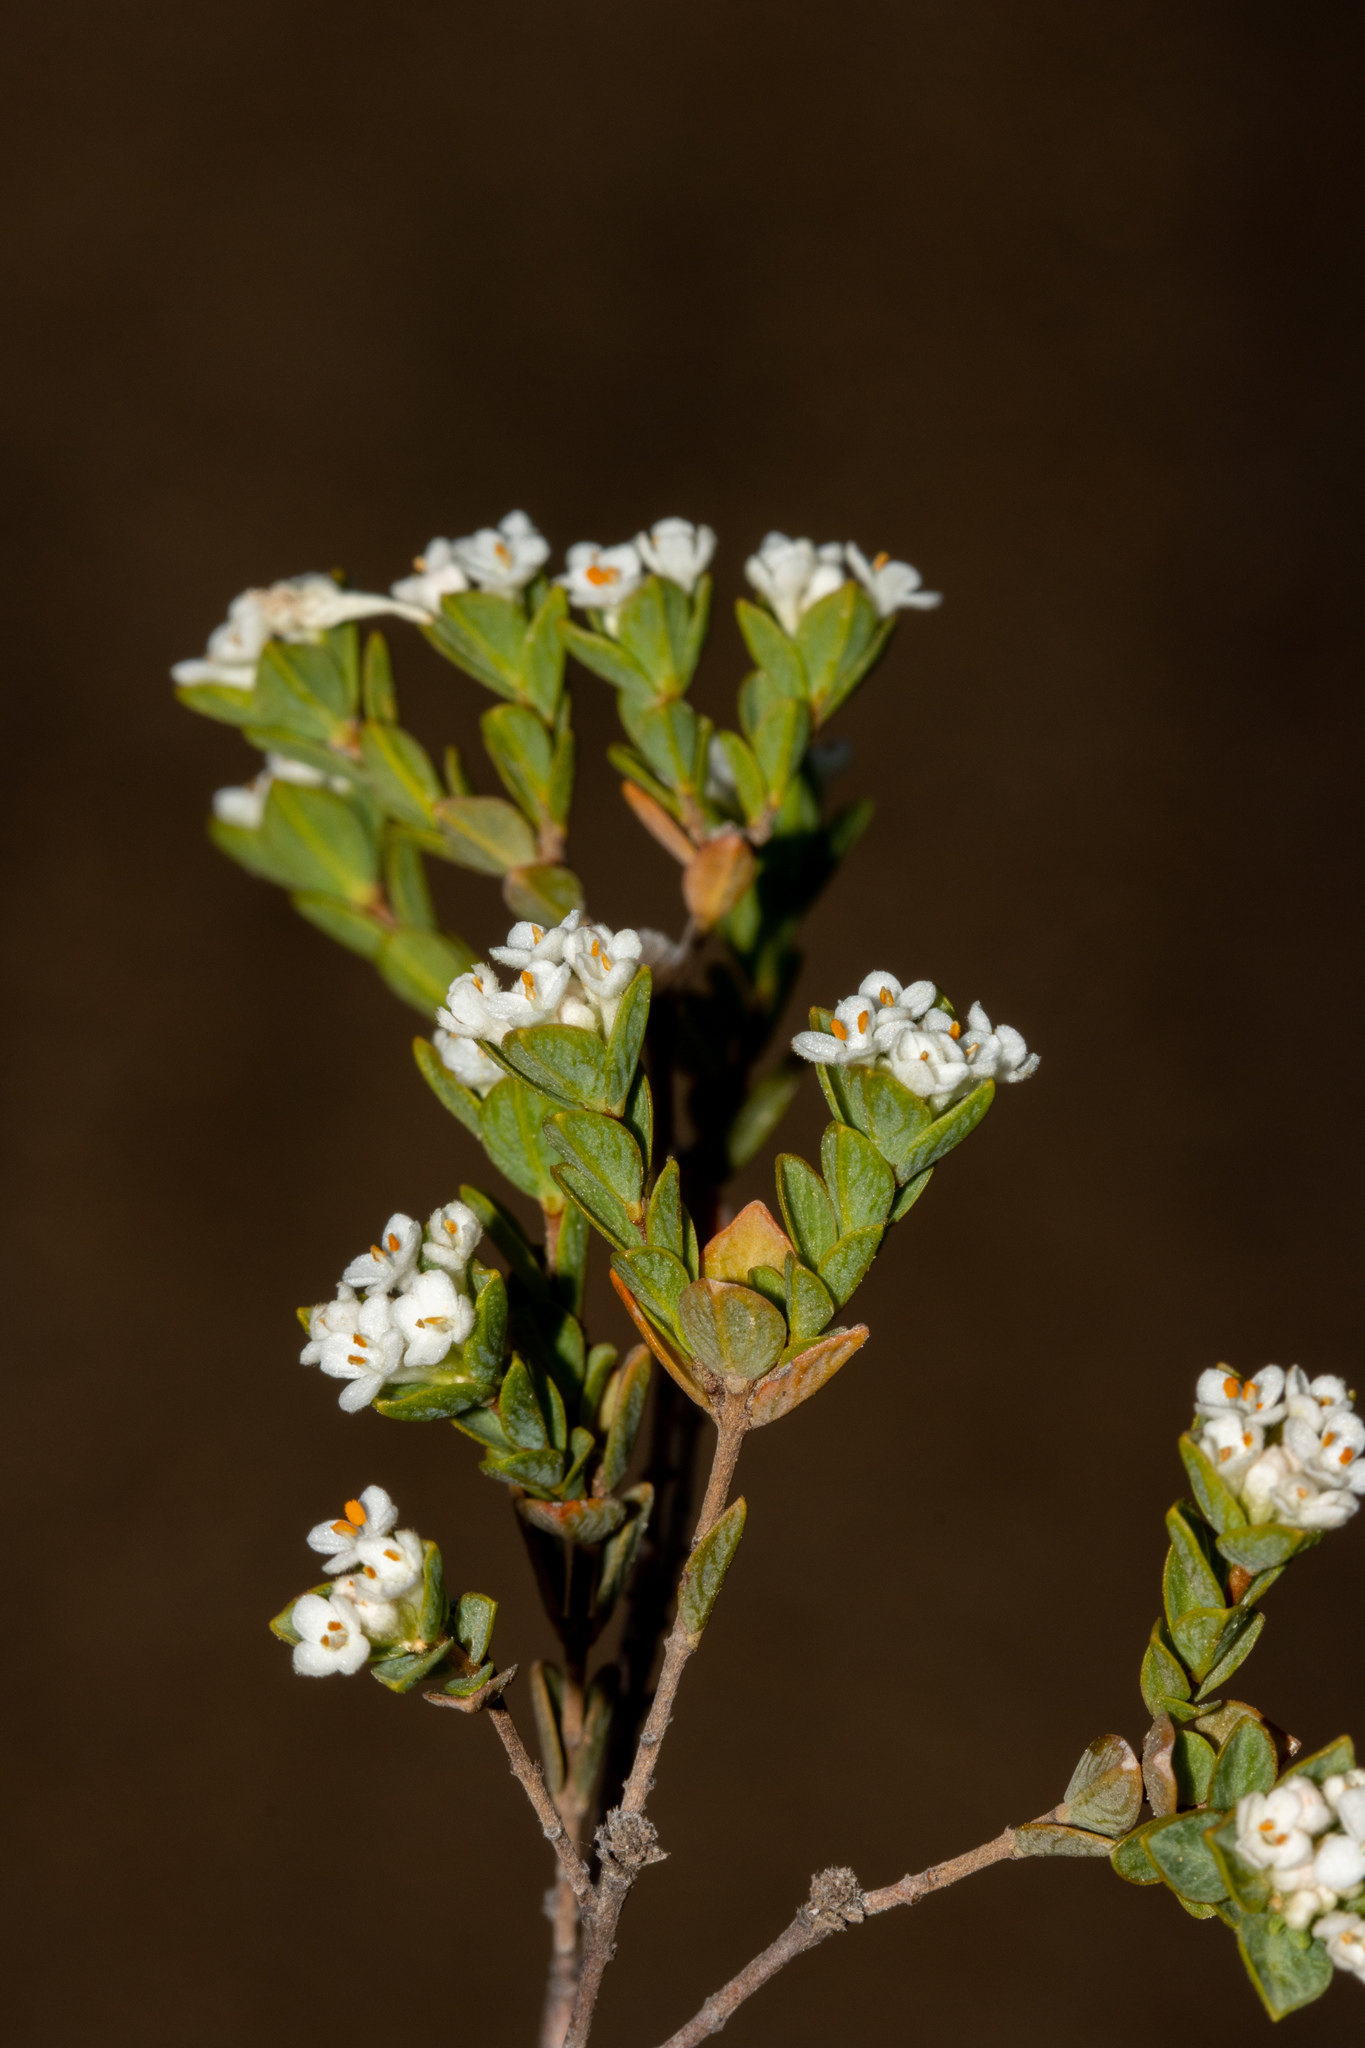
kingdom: Plantae
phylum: Tracheophyta
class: Magnoliopsida
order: Malvales
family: Thymelaeaceae
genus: Pimelea
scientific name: Pimelea flava
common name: Yellow riceflower
